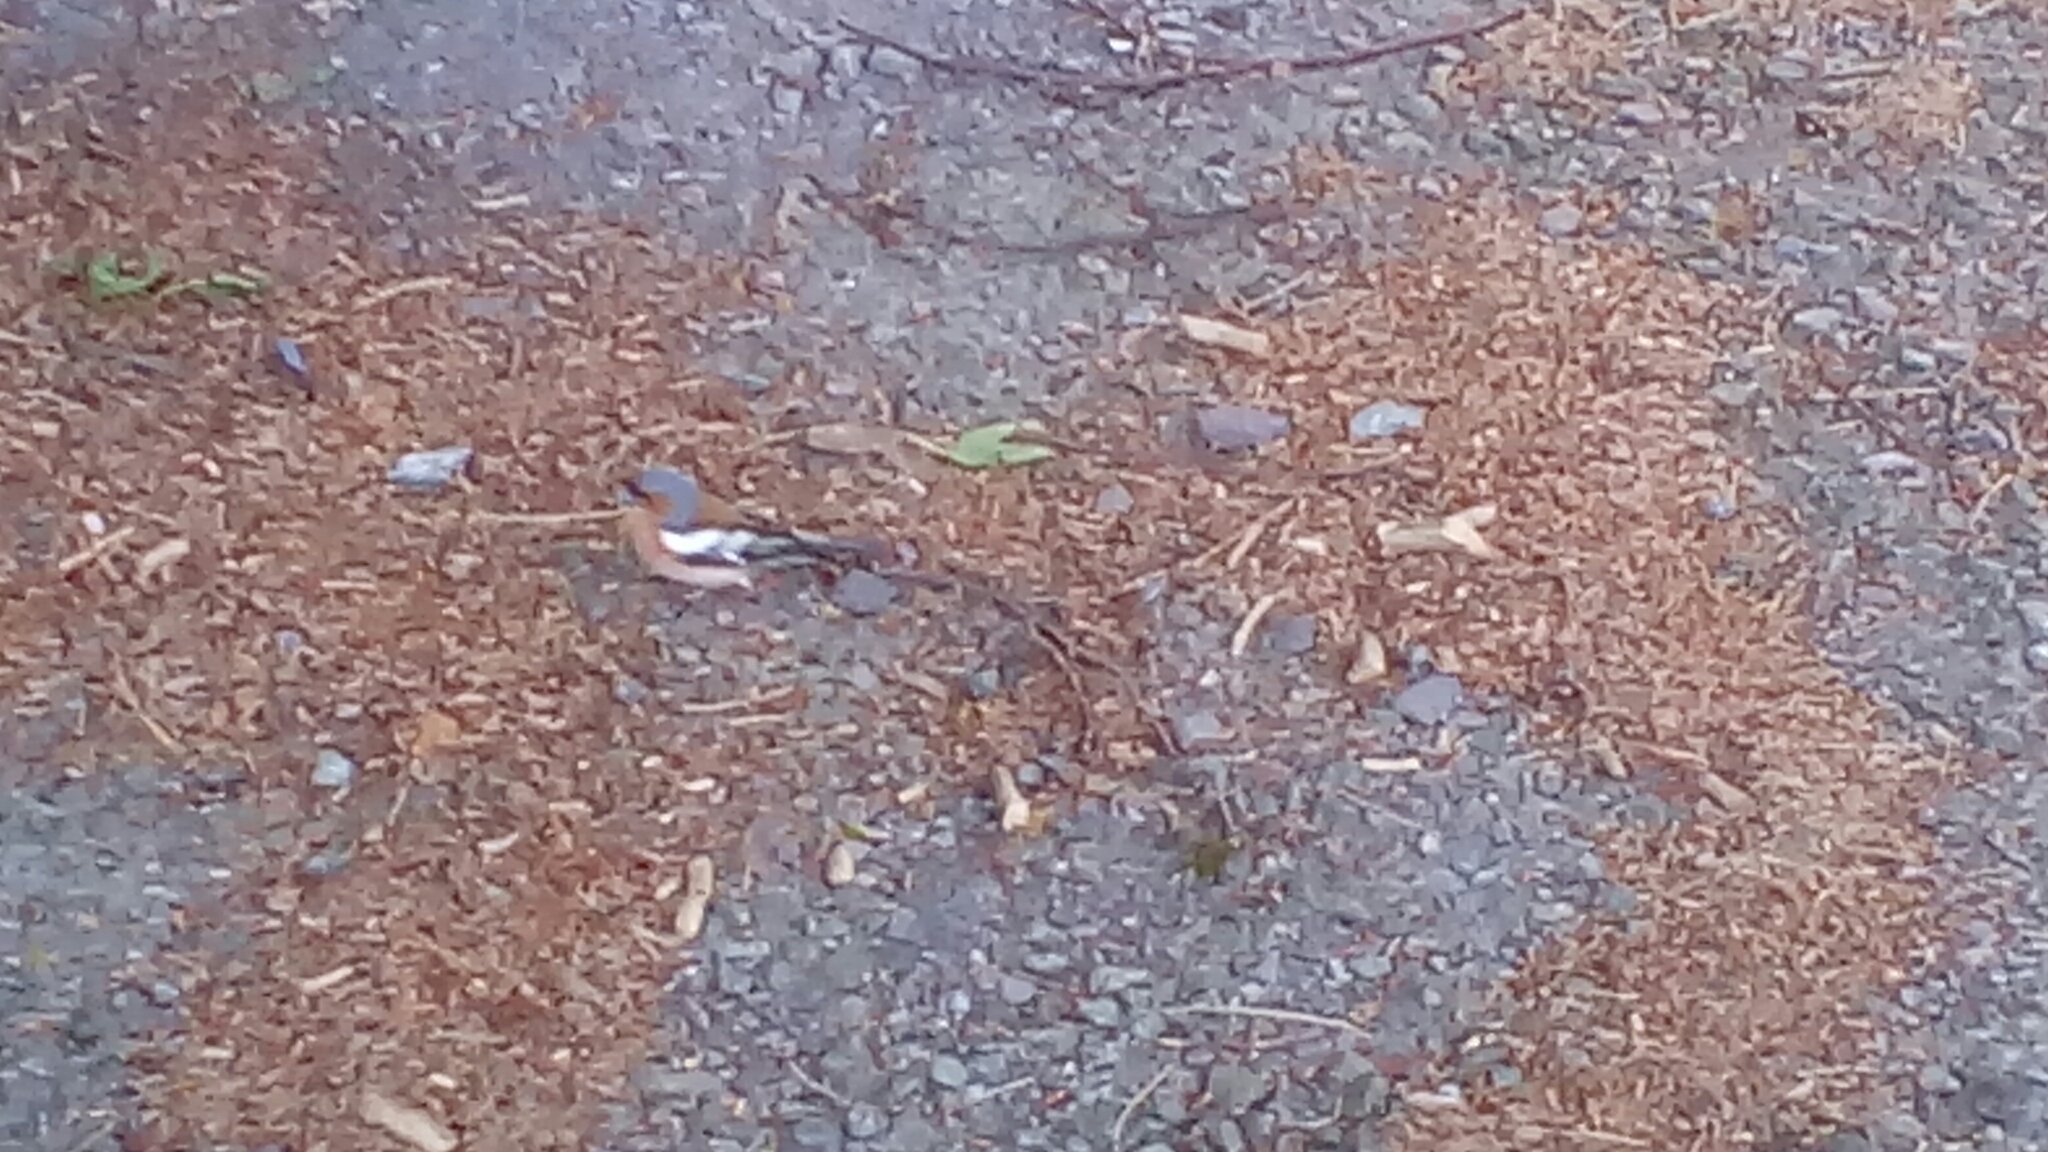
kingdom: Animalia
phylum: Chordata
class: Aves
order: Passeriformes
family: Fringillidae
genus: Fringilla
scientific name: Fringilla coelebs
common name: Common chaffinch
